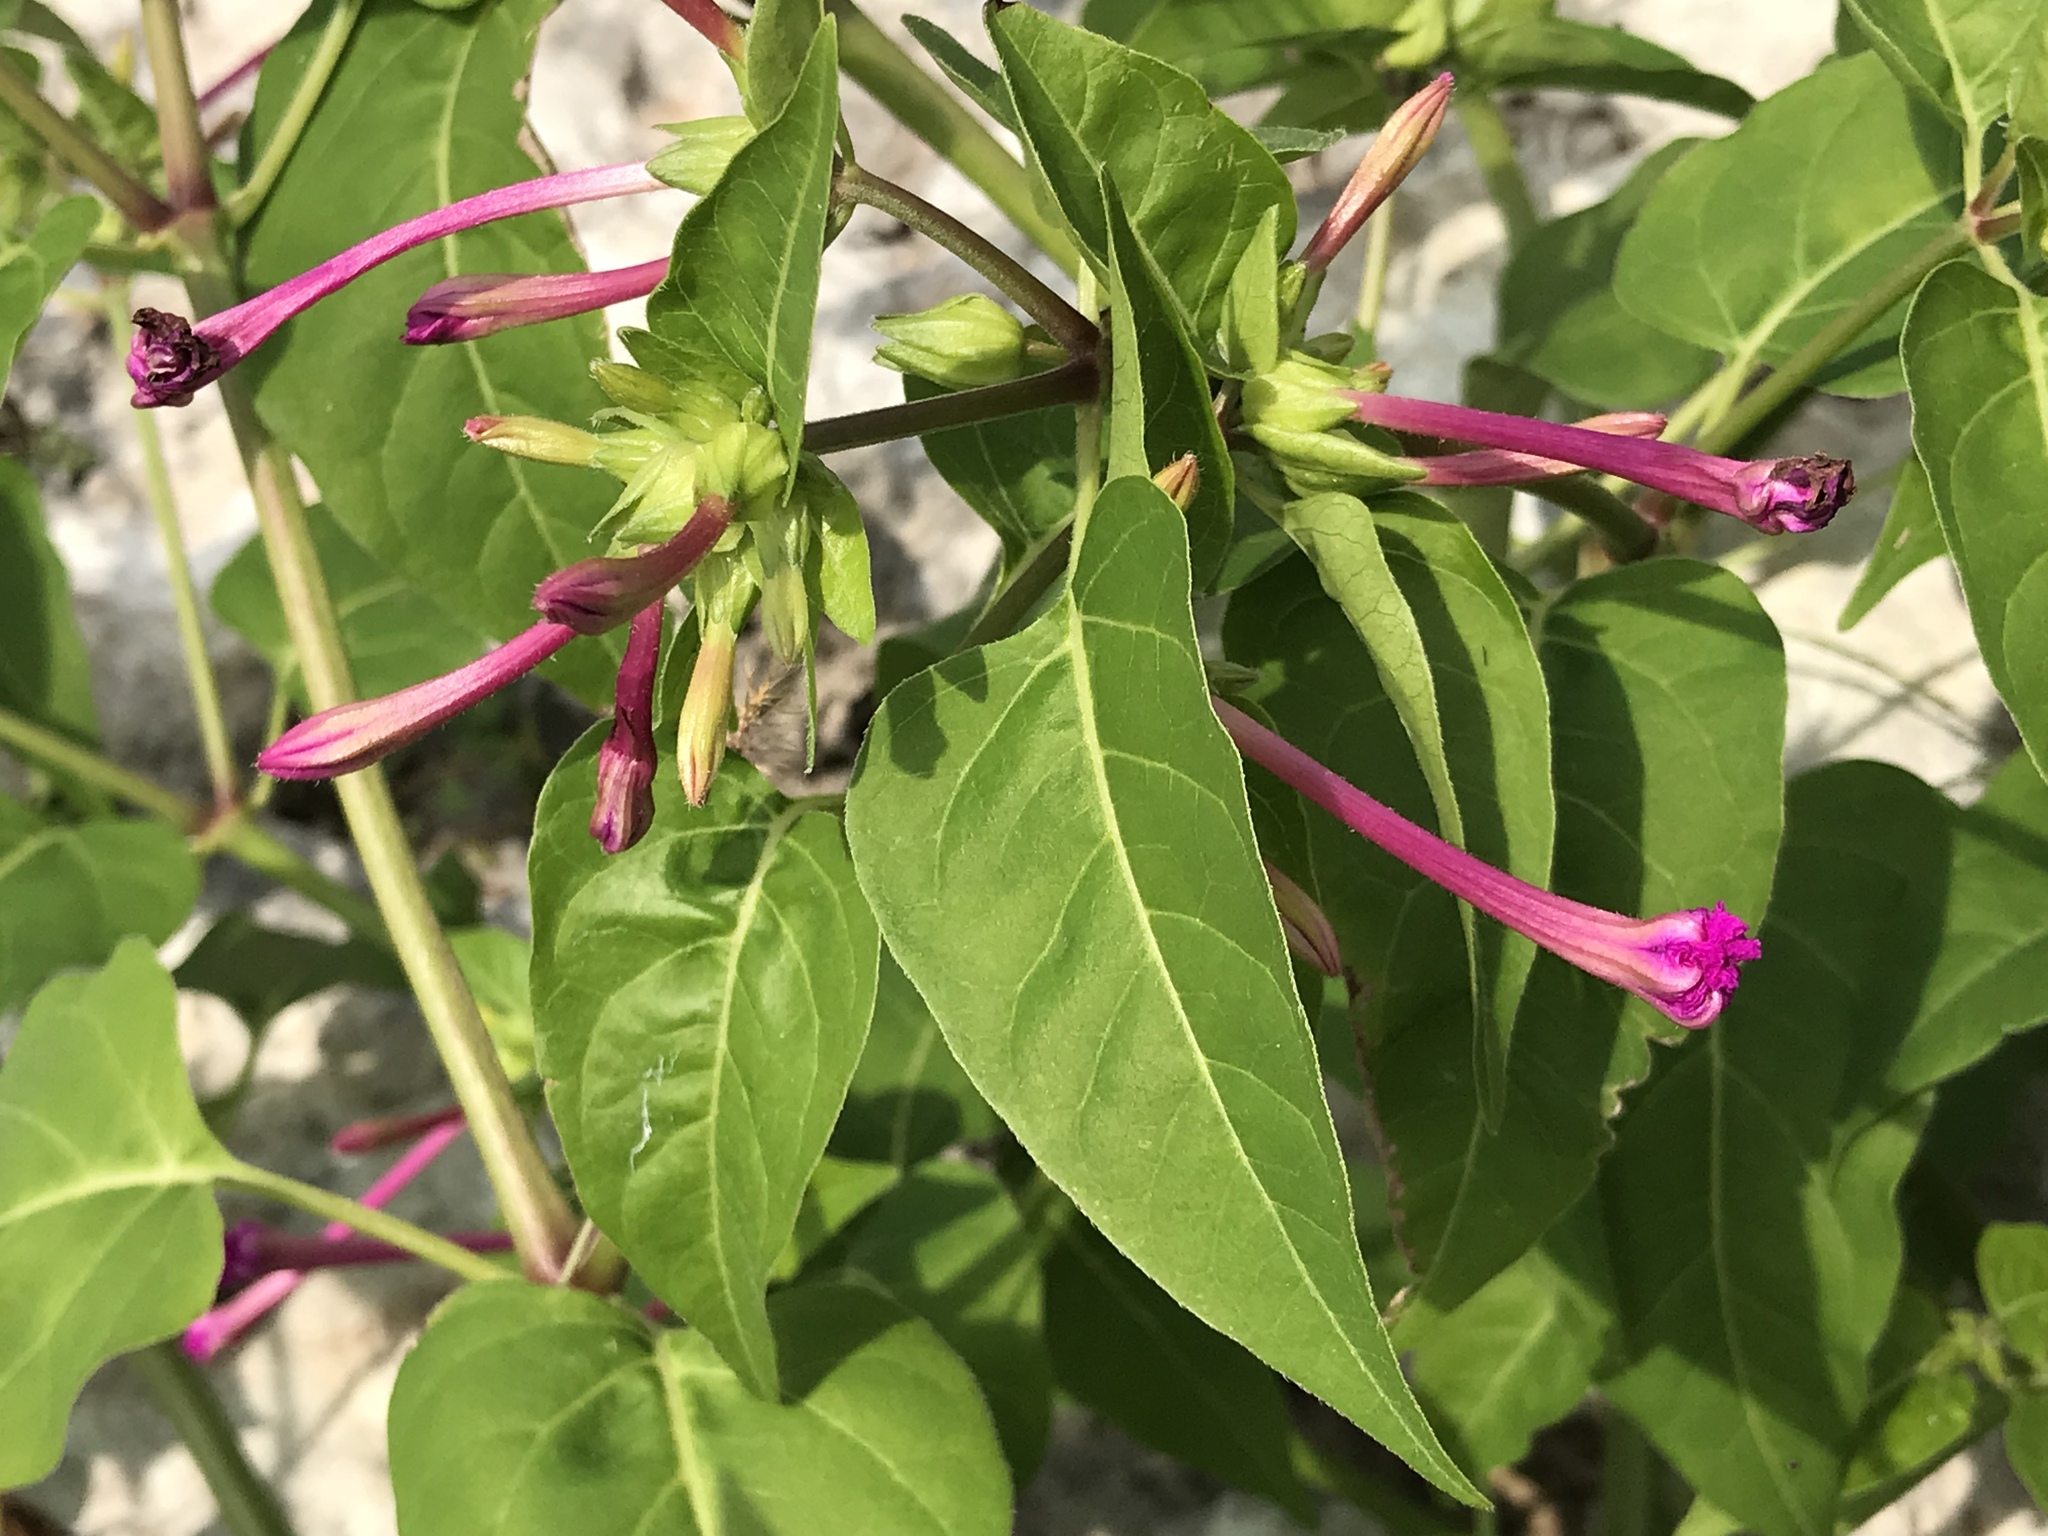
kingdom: Plantae
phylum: Tracheophyta
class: Magnoliopsida
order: Caryophyllales
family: Nyctaginaceae
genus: Mirabilis
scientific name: Mirabilis jalapa
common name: Marvel-of-peru
